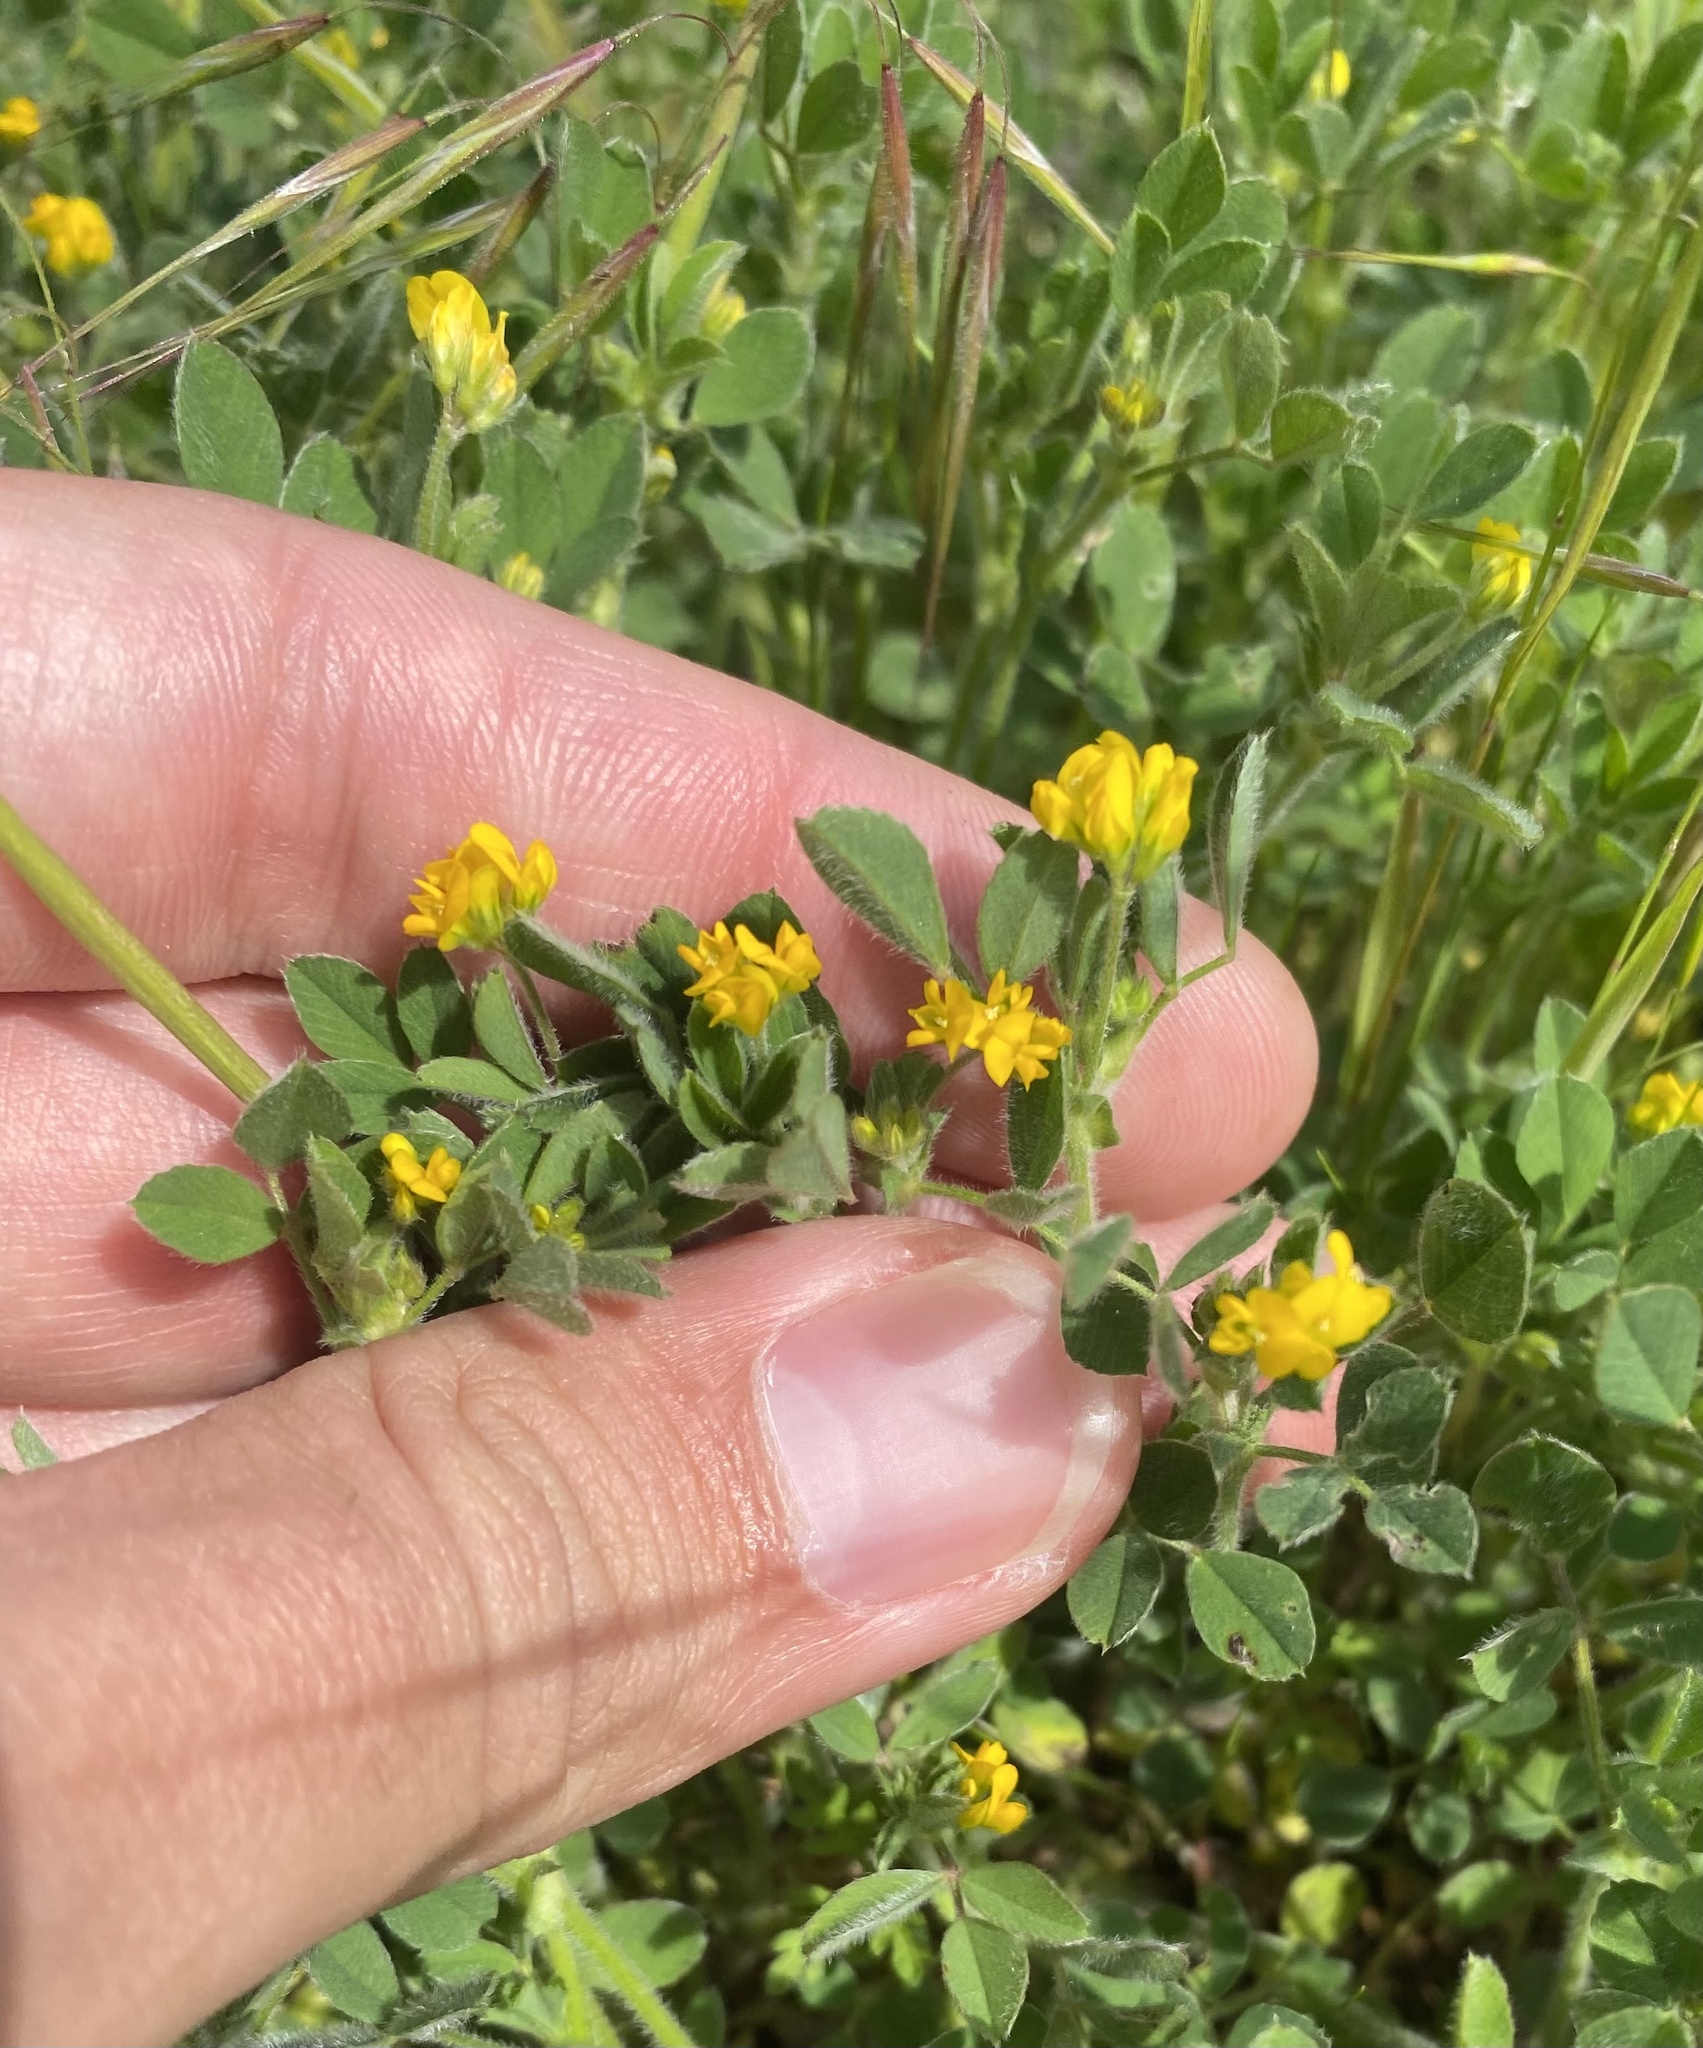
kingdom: Plantae
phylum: Tracheophyta
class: Magnoliopsida
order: Fabales
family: Fabaceae
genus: Medicago
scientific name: Medicago minima
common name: Little bur-clover
